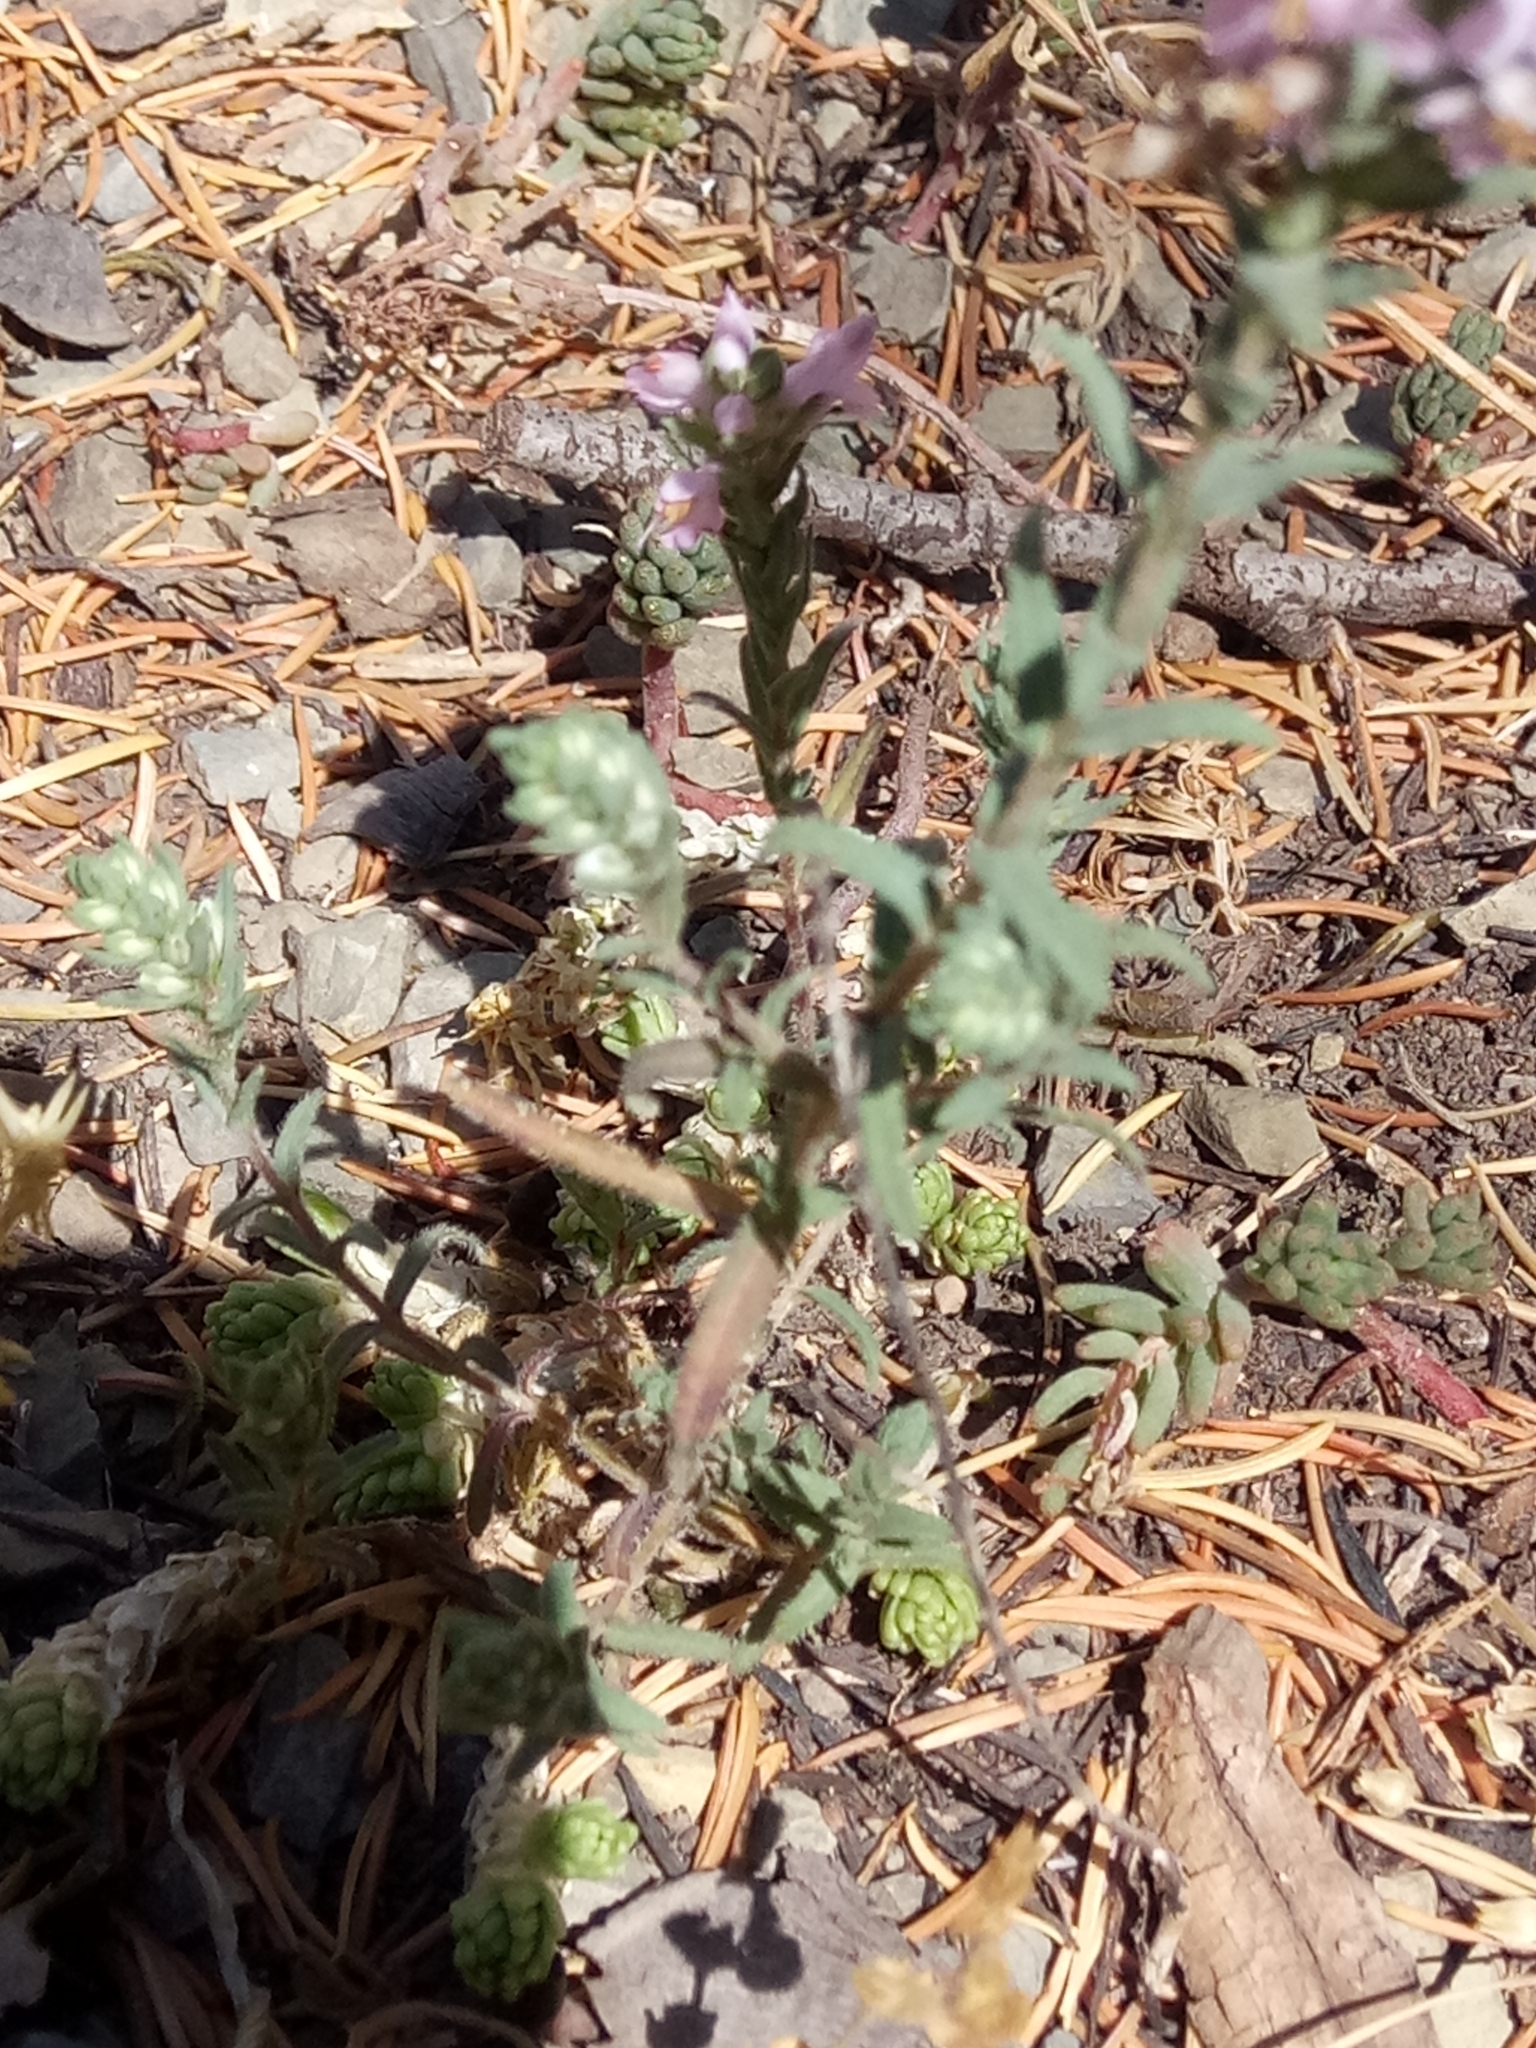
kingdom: Plantae
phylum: Tracheophyta
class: Magnoliopsida
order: Lamiales
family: Orobanchaceae
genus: Odontites
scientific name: Odontites violaceus
